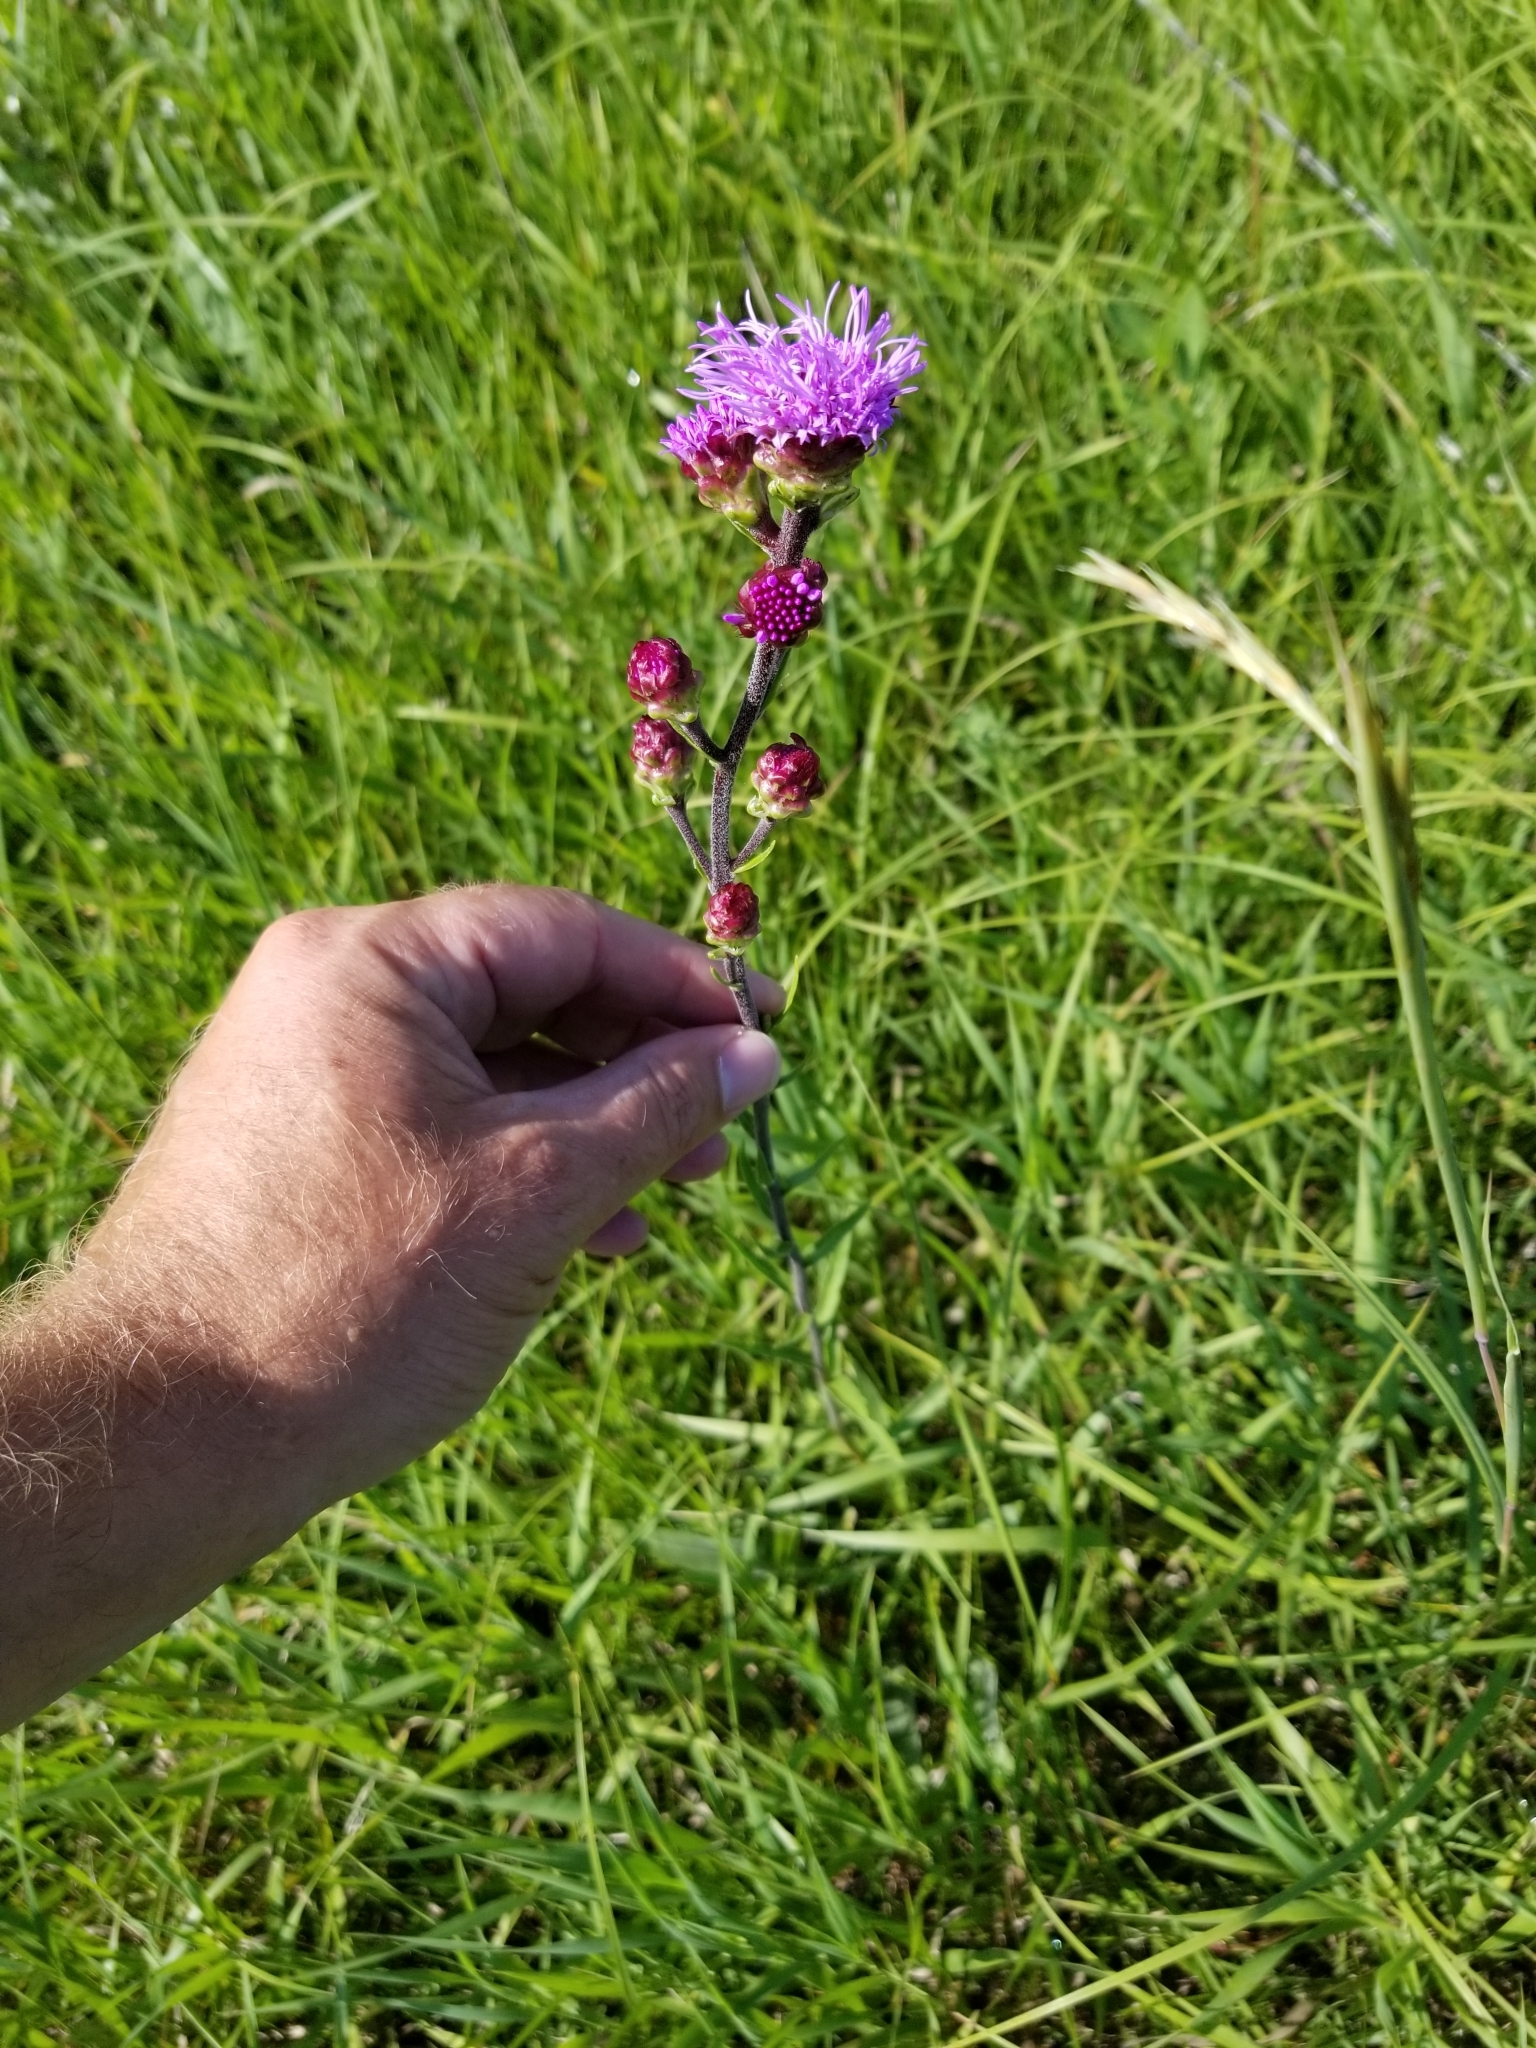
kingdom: Plantae
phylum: Tracheophyta
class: Magnoliopsida
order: Asterales
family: Asteraceae
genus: Liatris
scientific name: Liatris ligulistylis
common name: Northern plains gayfeather
